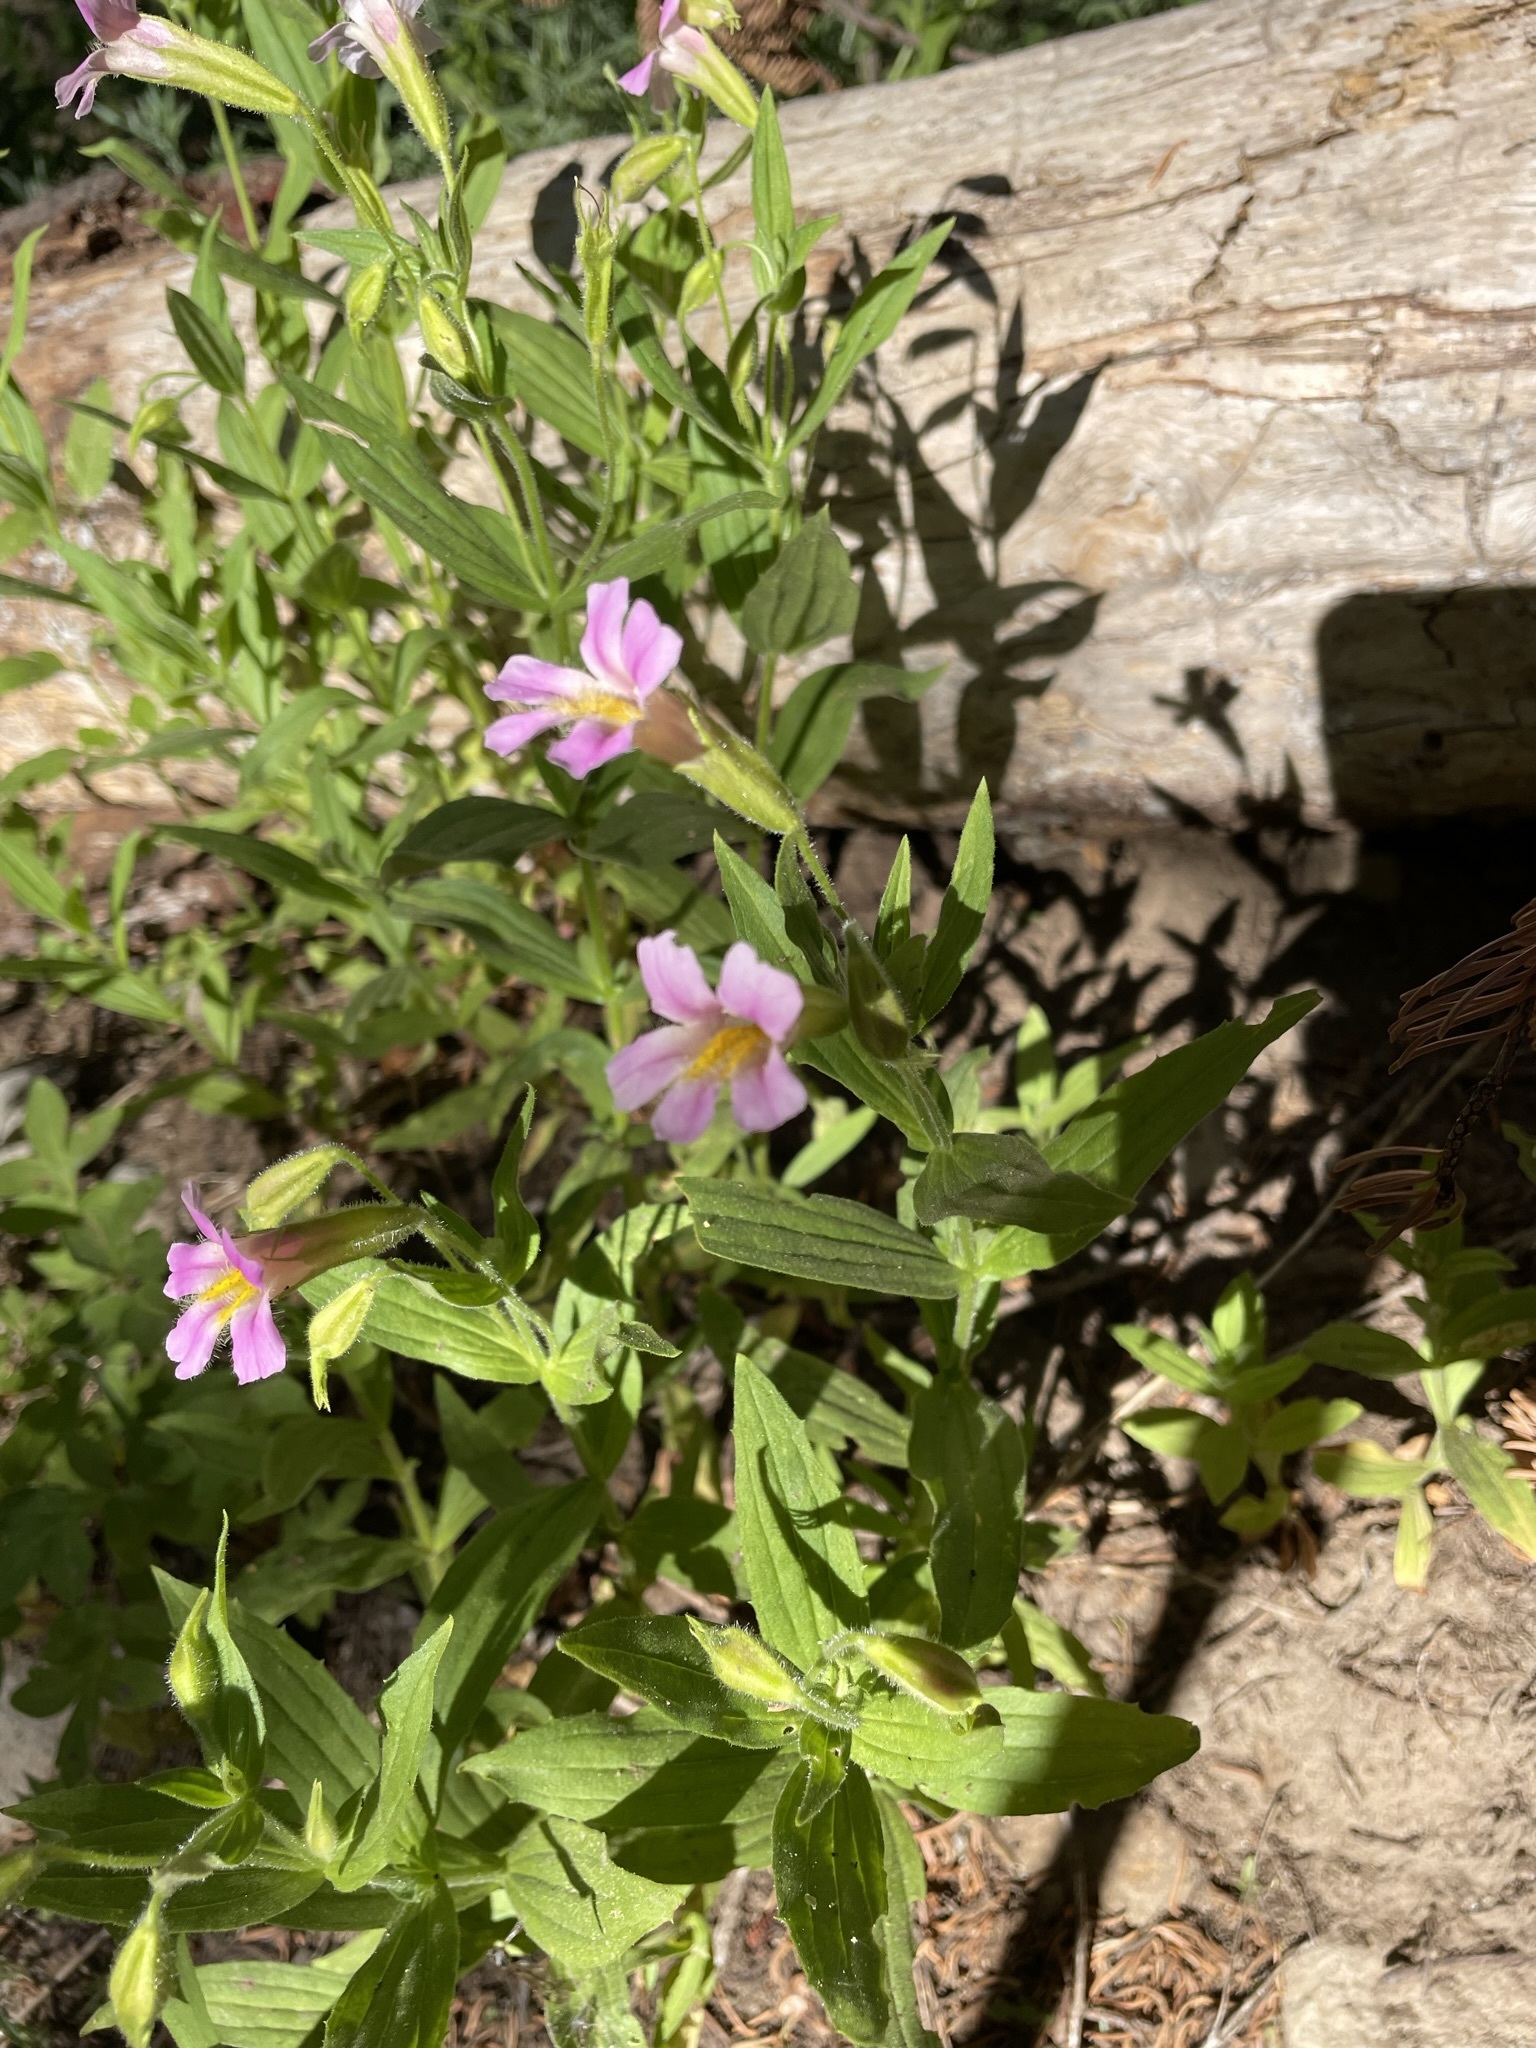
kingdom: Plantae
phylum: Tracheophyta
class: Magnoliopsida
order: Lamiales
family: Phrymaceae
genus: Erythranthe
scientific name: Erythranthe erubescens
